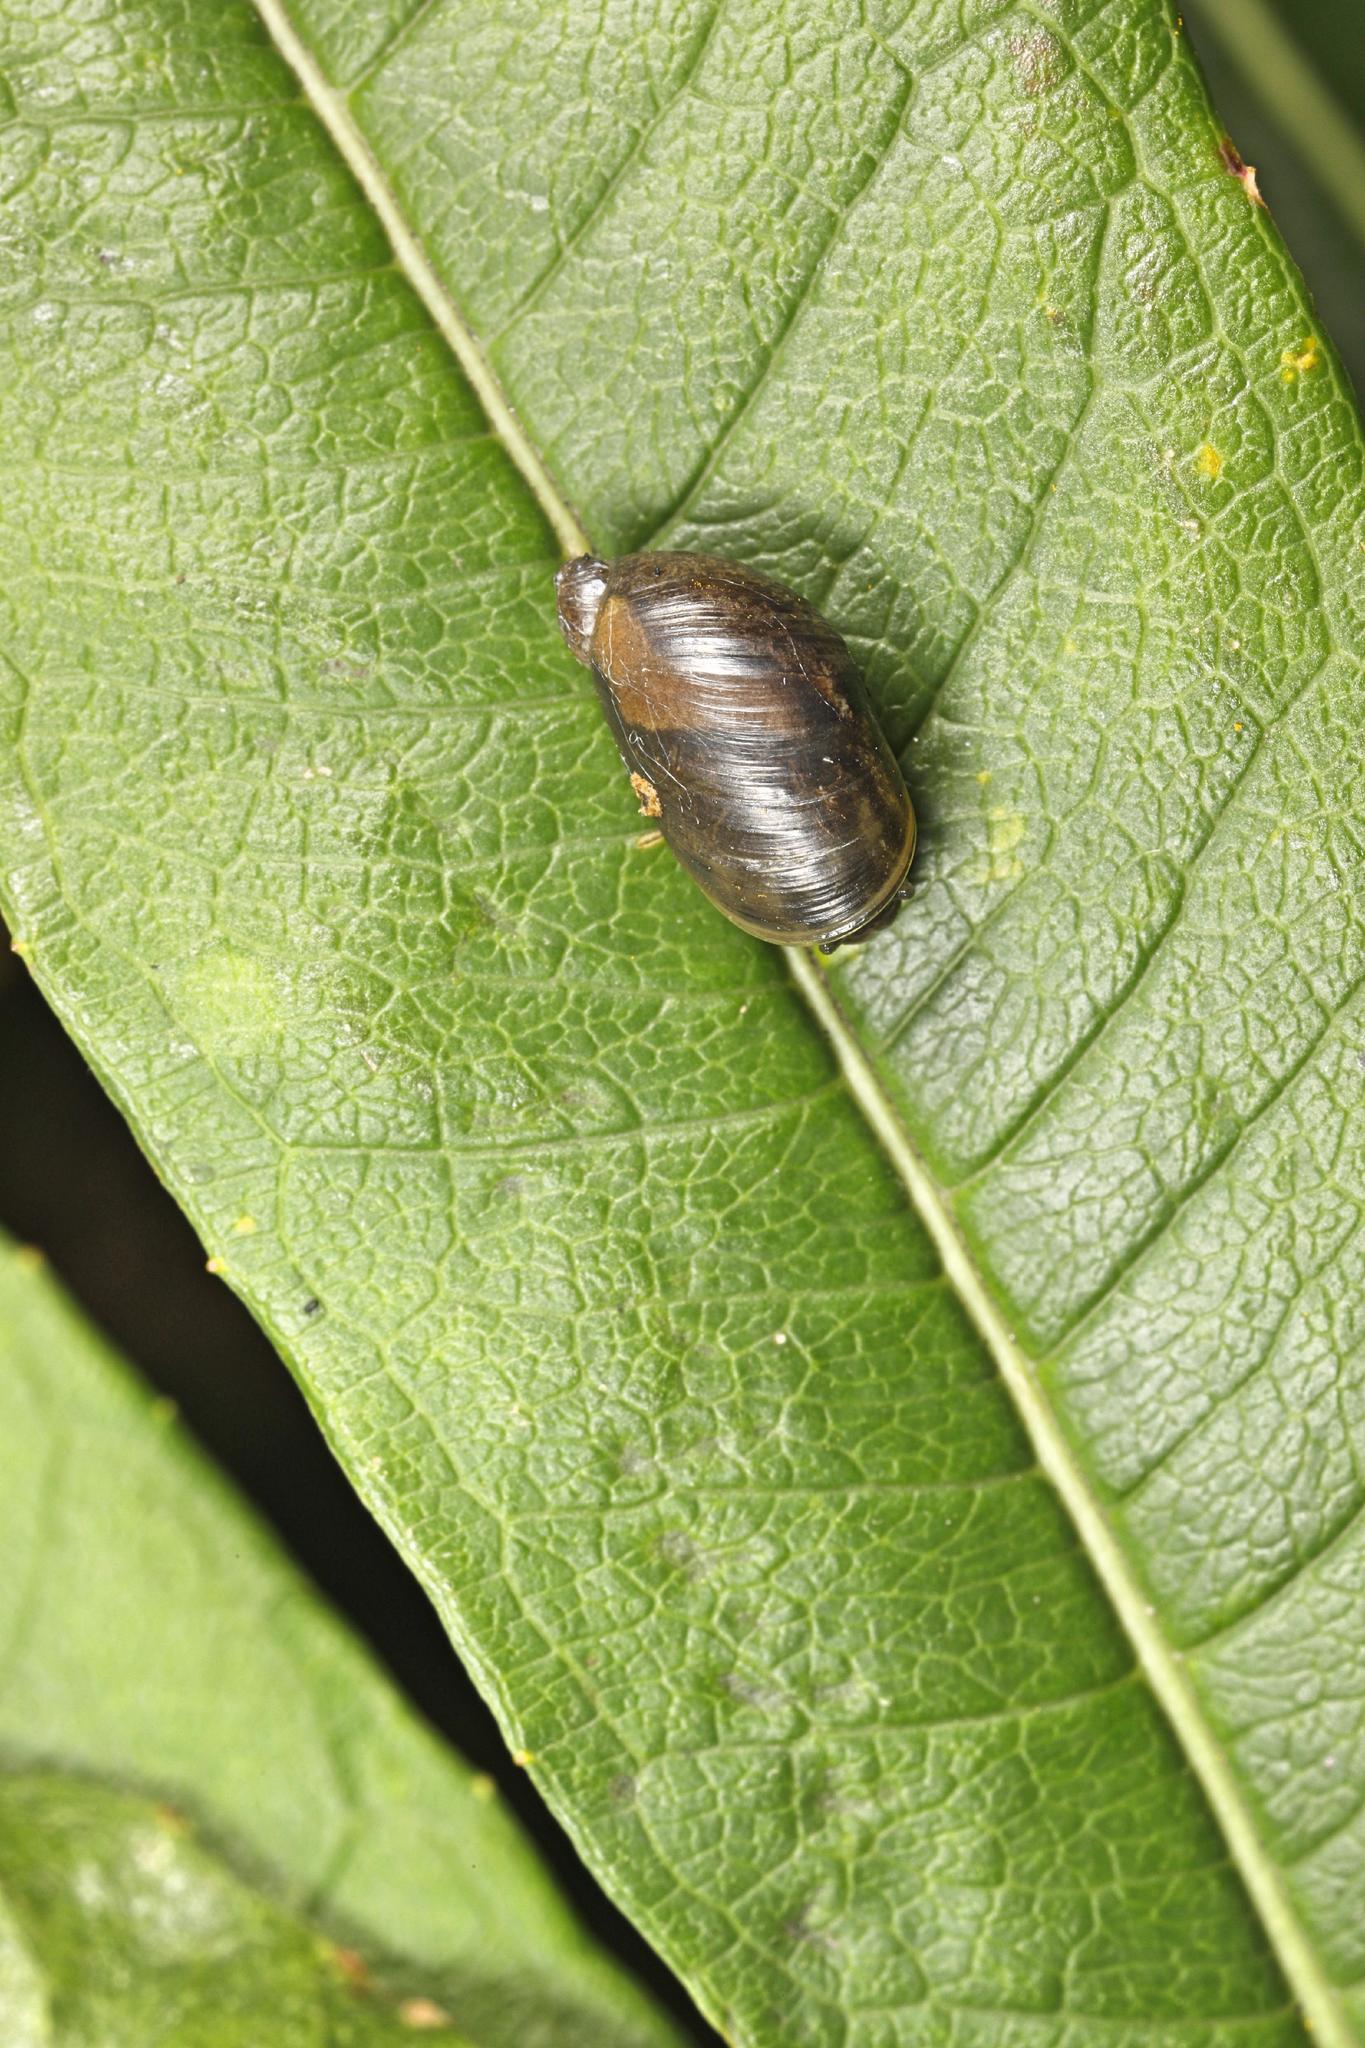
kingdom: Animalia
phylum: Mollusca
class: Gastropoda
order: Stylommatophora
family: Succineidae
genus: Succinea
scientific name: Succinea putris
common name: European ambersnail
